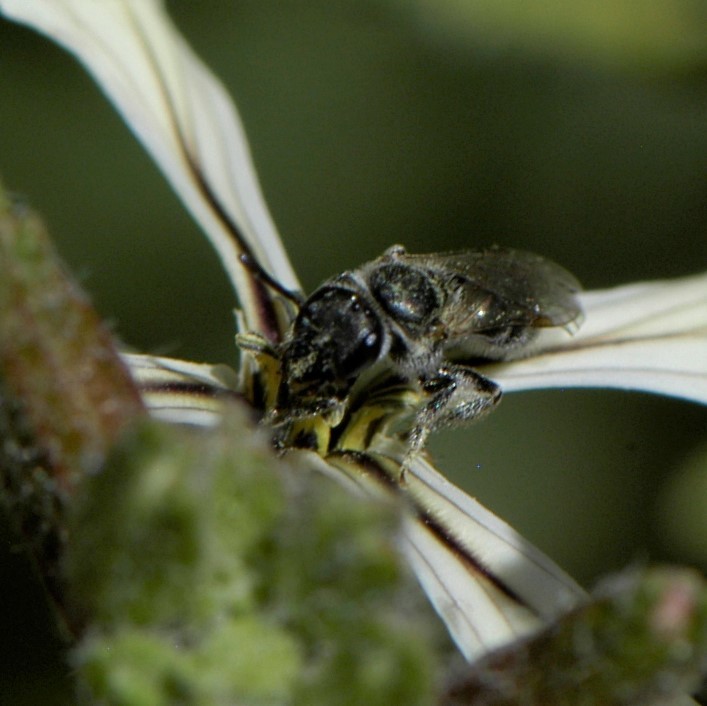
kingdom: Animalia
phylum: Arthropoda
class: Insecta
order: Hymenoptera
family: Halictidae
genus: Dialictus
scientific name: Dialictus
